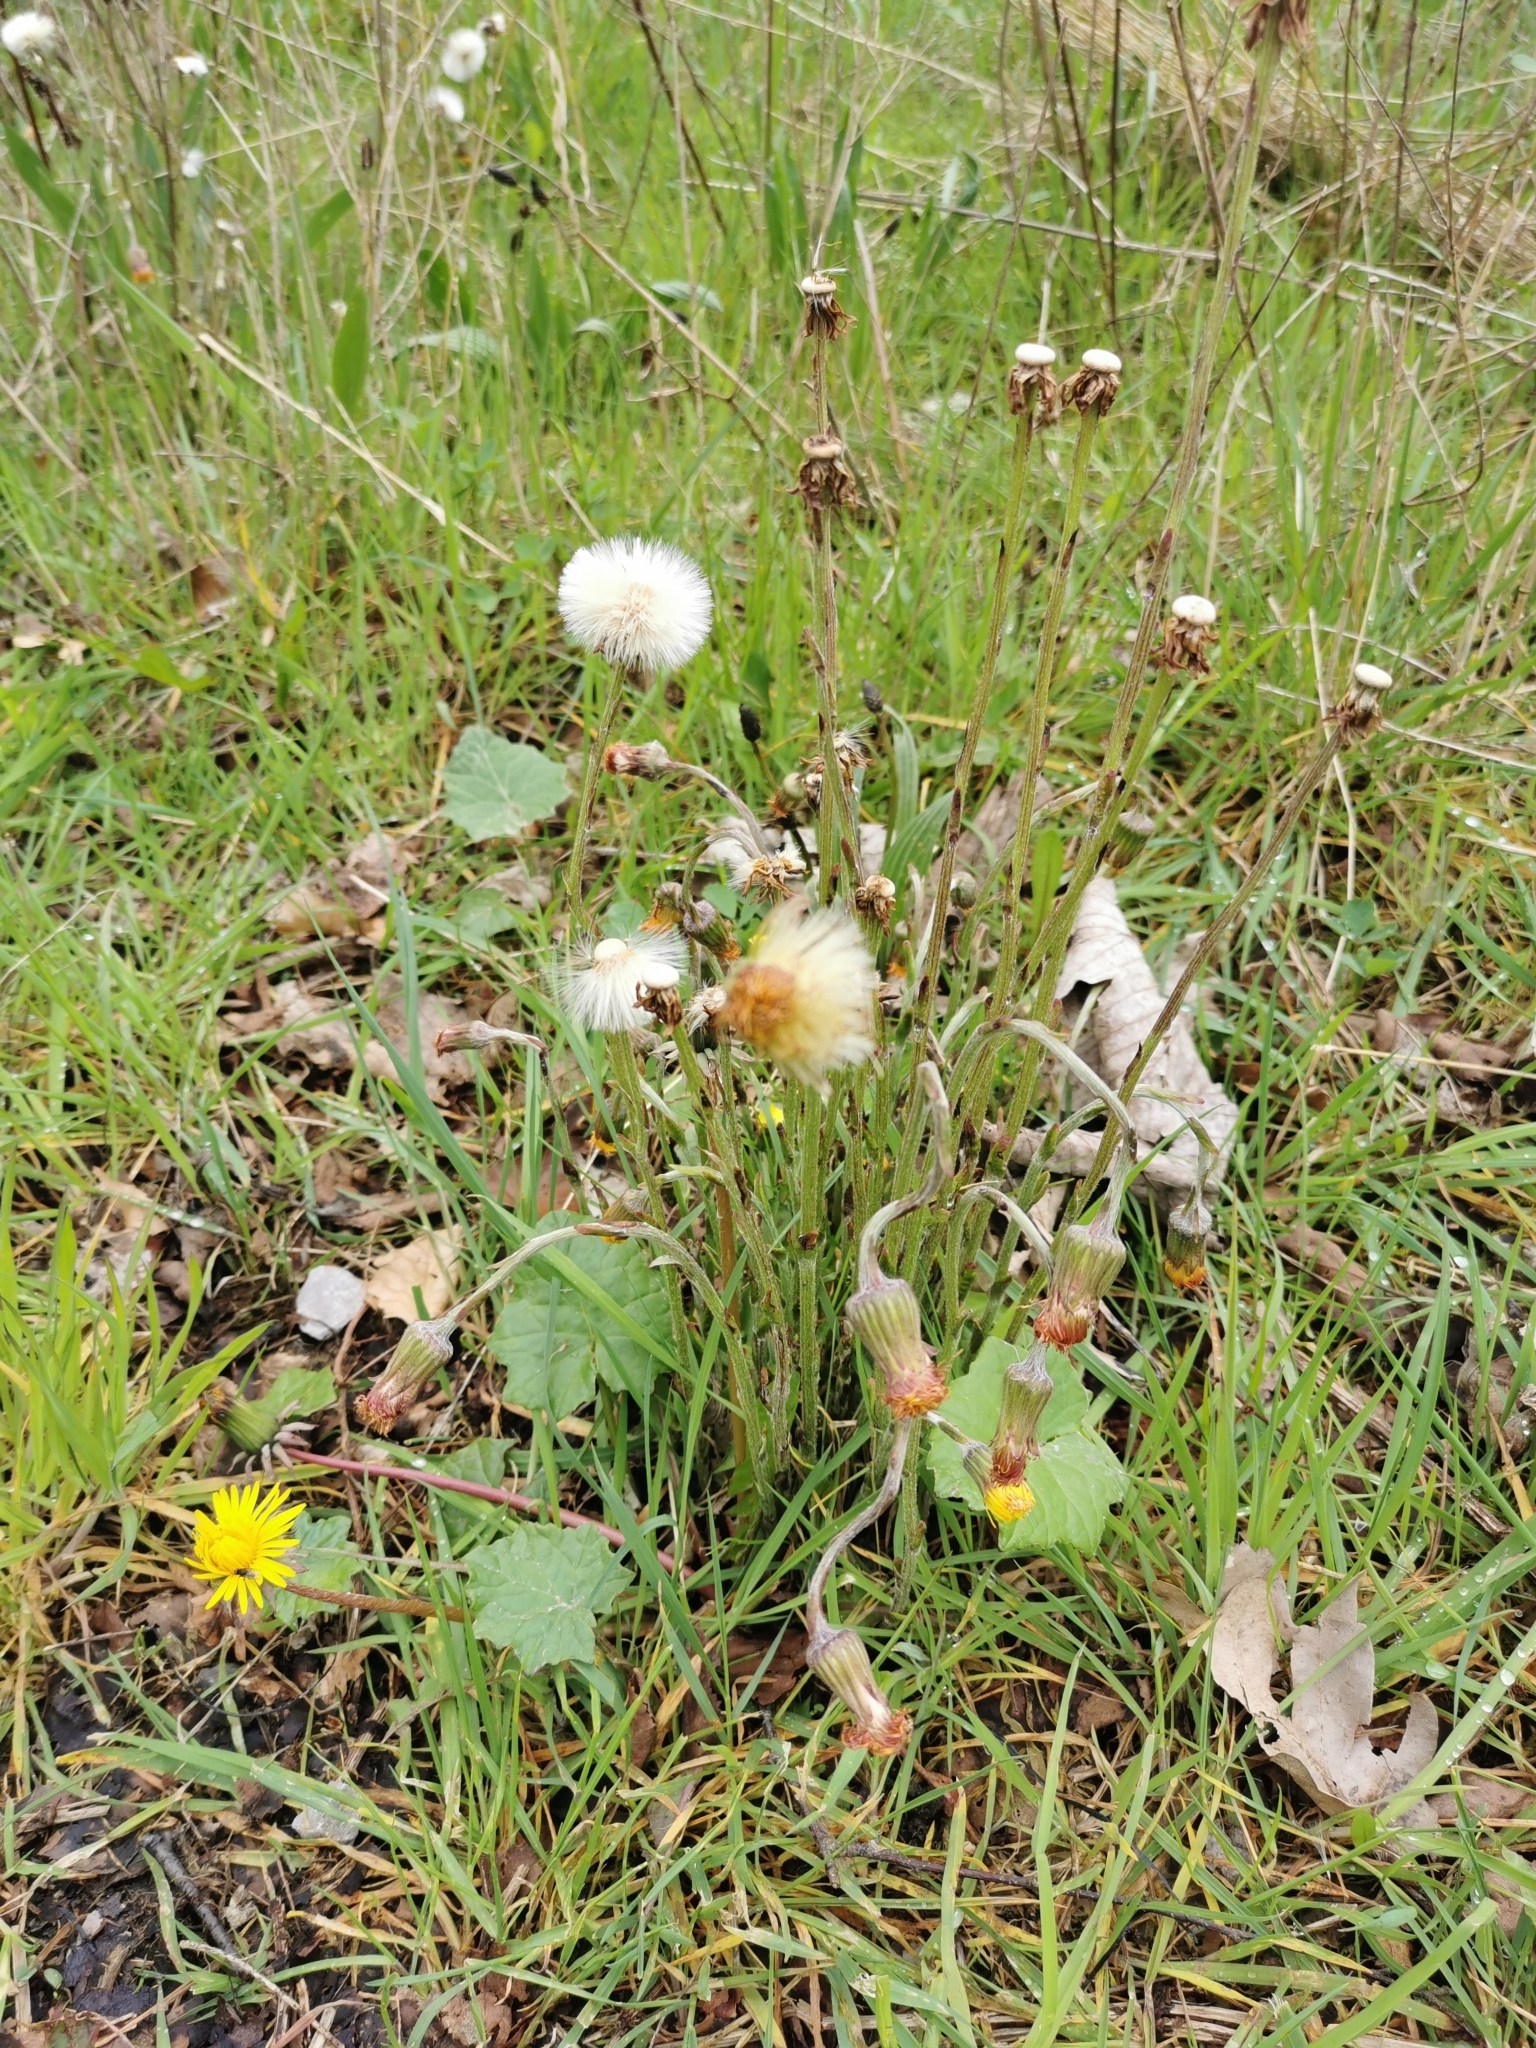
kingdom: Plantae
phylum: Tracheophyta
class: Magnoliopsida
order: Asterales
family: Asteraceae
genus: Tussilago
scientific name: Tussilago farfara
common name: Coltsfoot
